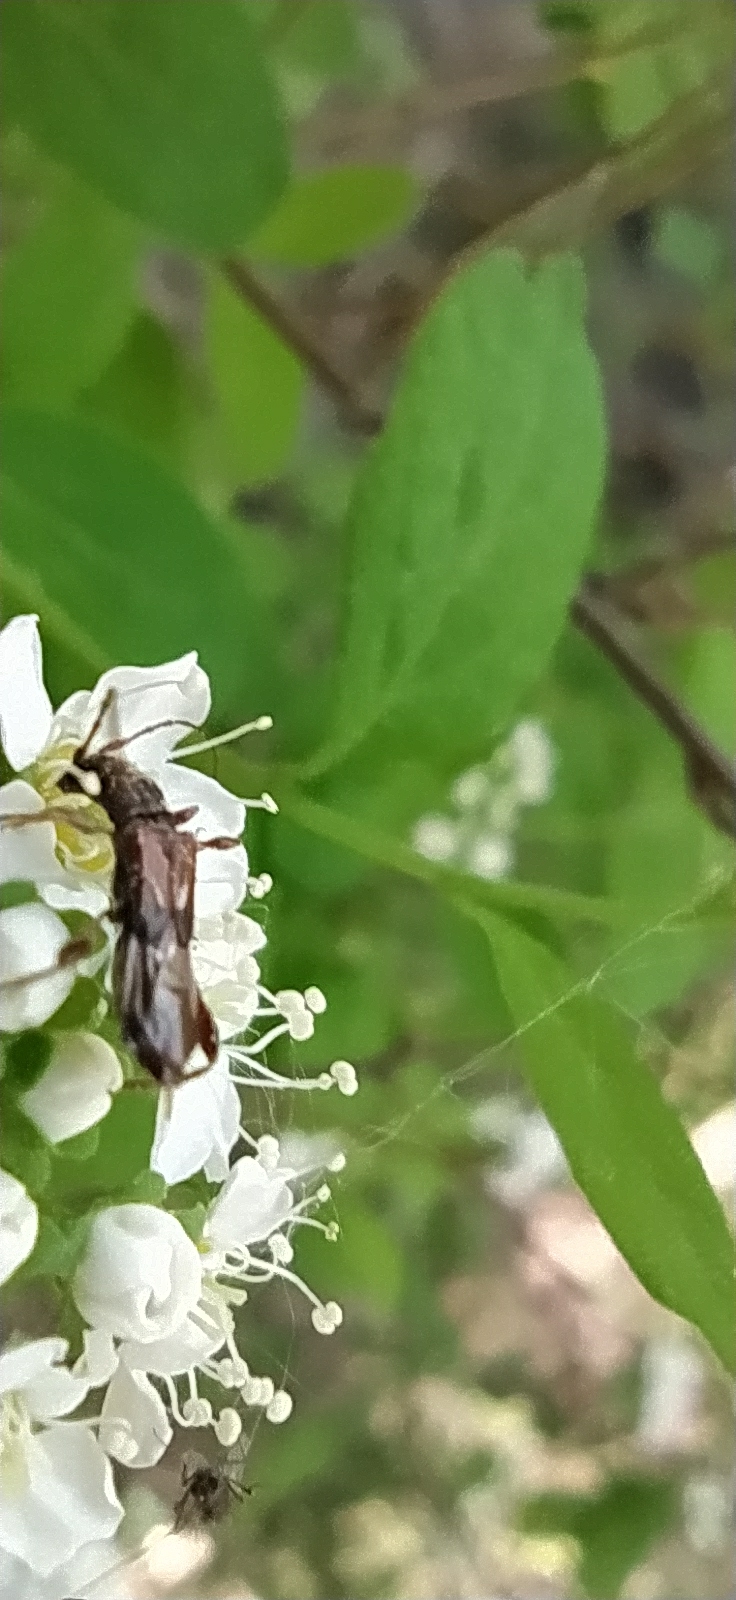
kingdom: Animalia
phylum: Arthropoda
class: Insecta
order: Coleoptera
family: Cerambycidae
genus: Molorchus
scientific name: Molorchus minor
